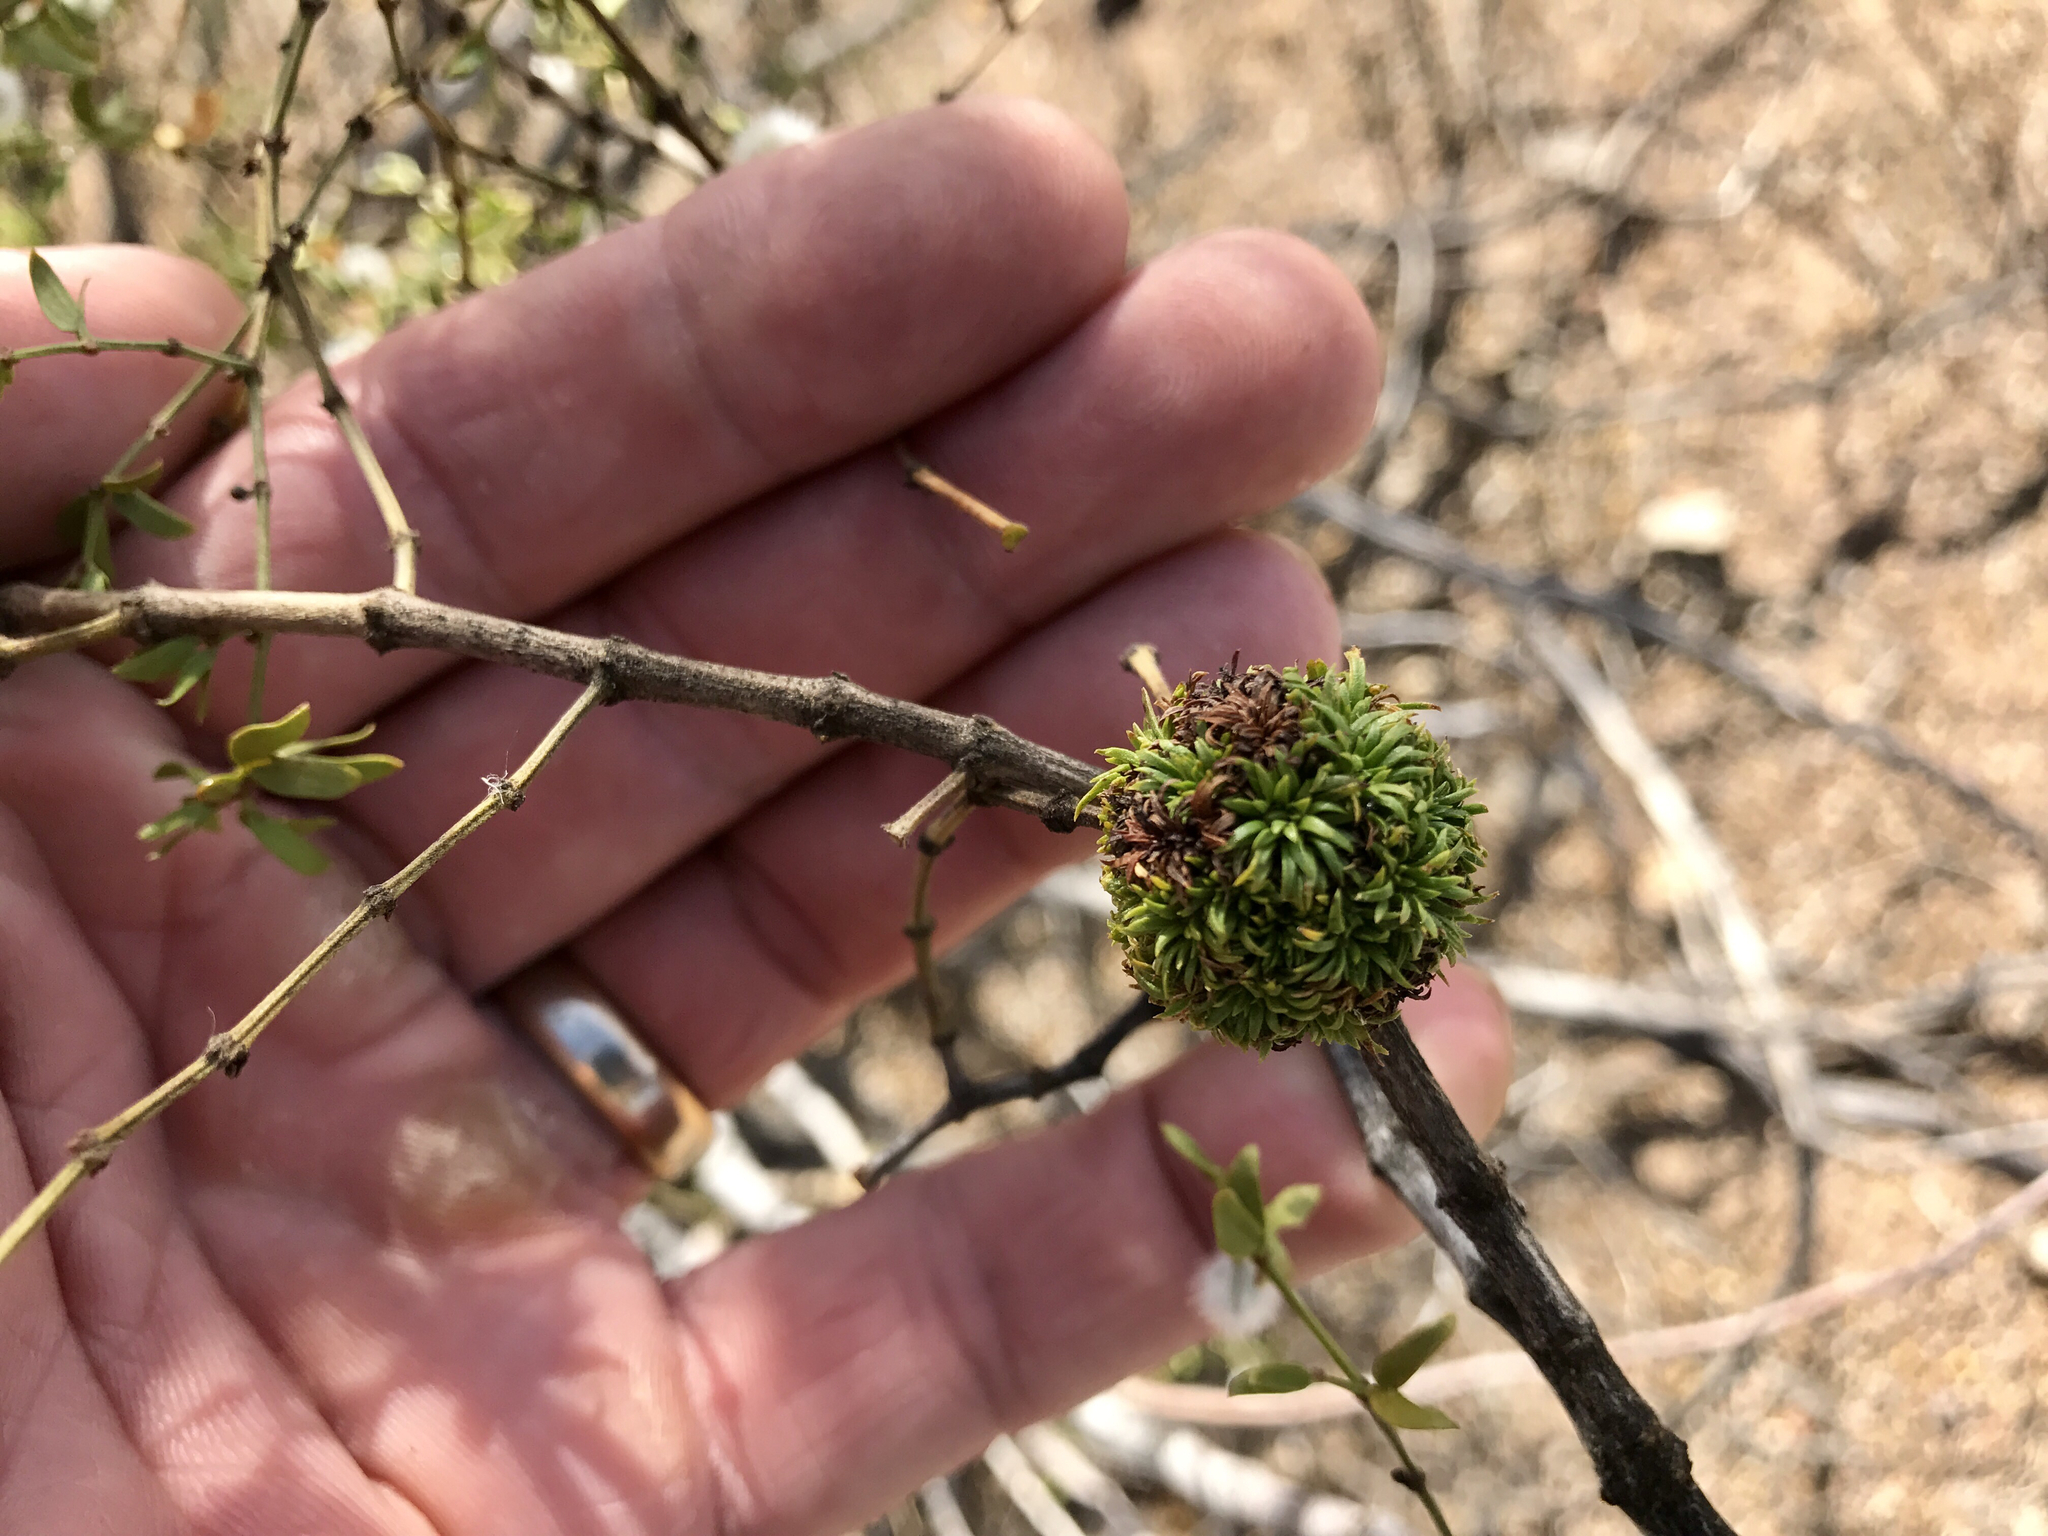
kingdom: Animalia
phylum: Arthropoda
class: Insecta
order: Diptera
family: Cecidomyiidae
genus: Asphondylia
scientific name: Asphondylia auripila
